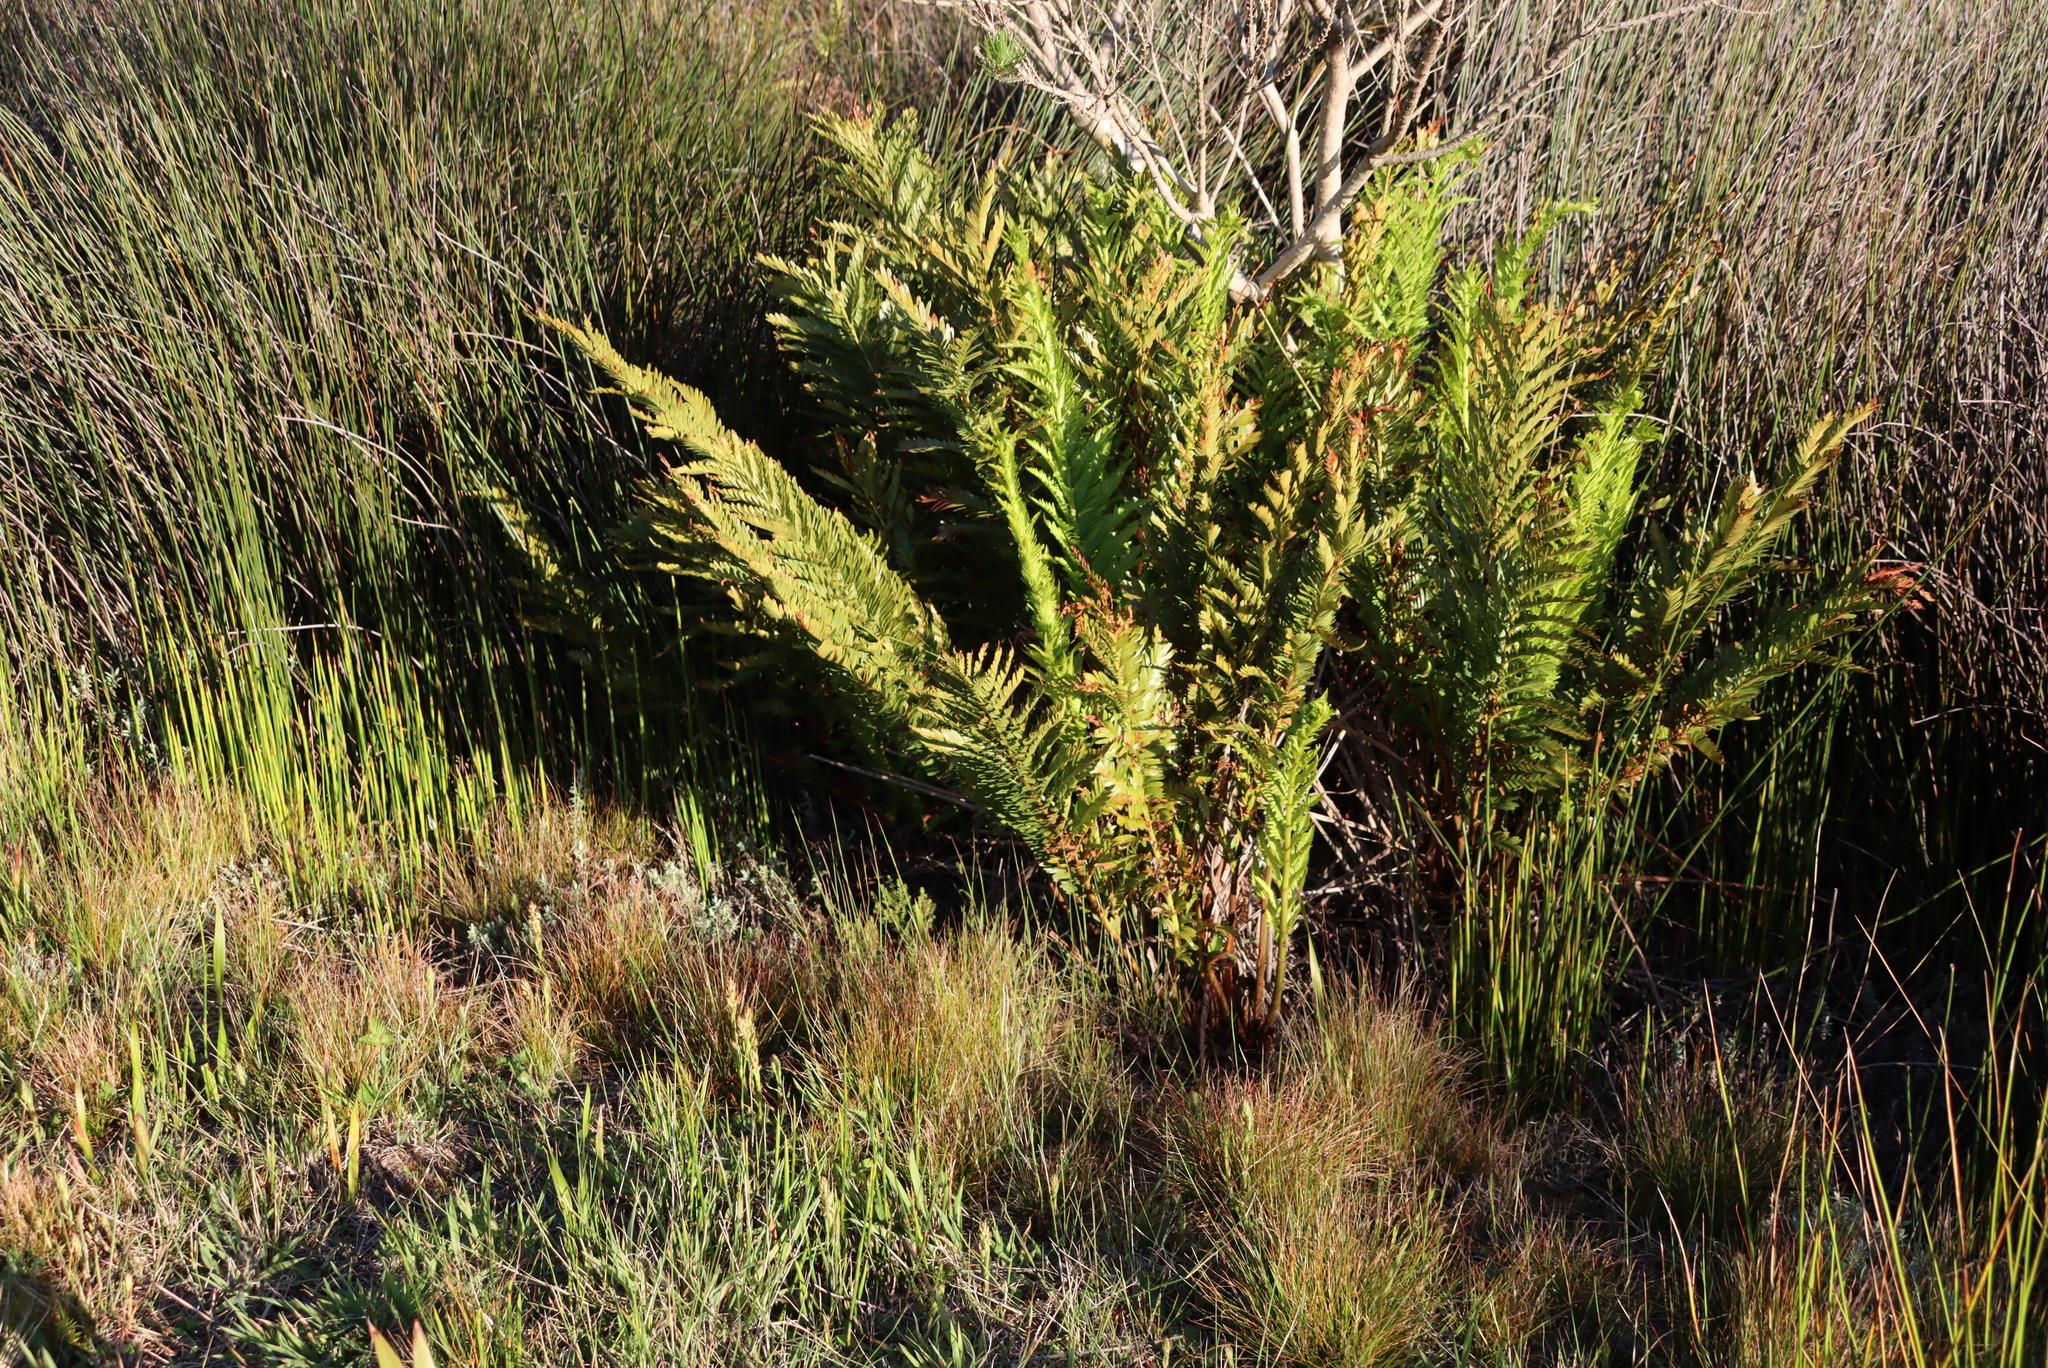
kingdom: Plantae
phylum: Tracheophyta
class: Polypodiopsida
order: Osmundales
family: Osmundaceae
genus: Todea
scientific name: Todea barbara
